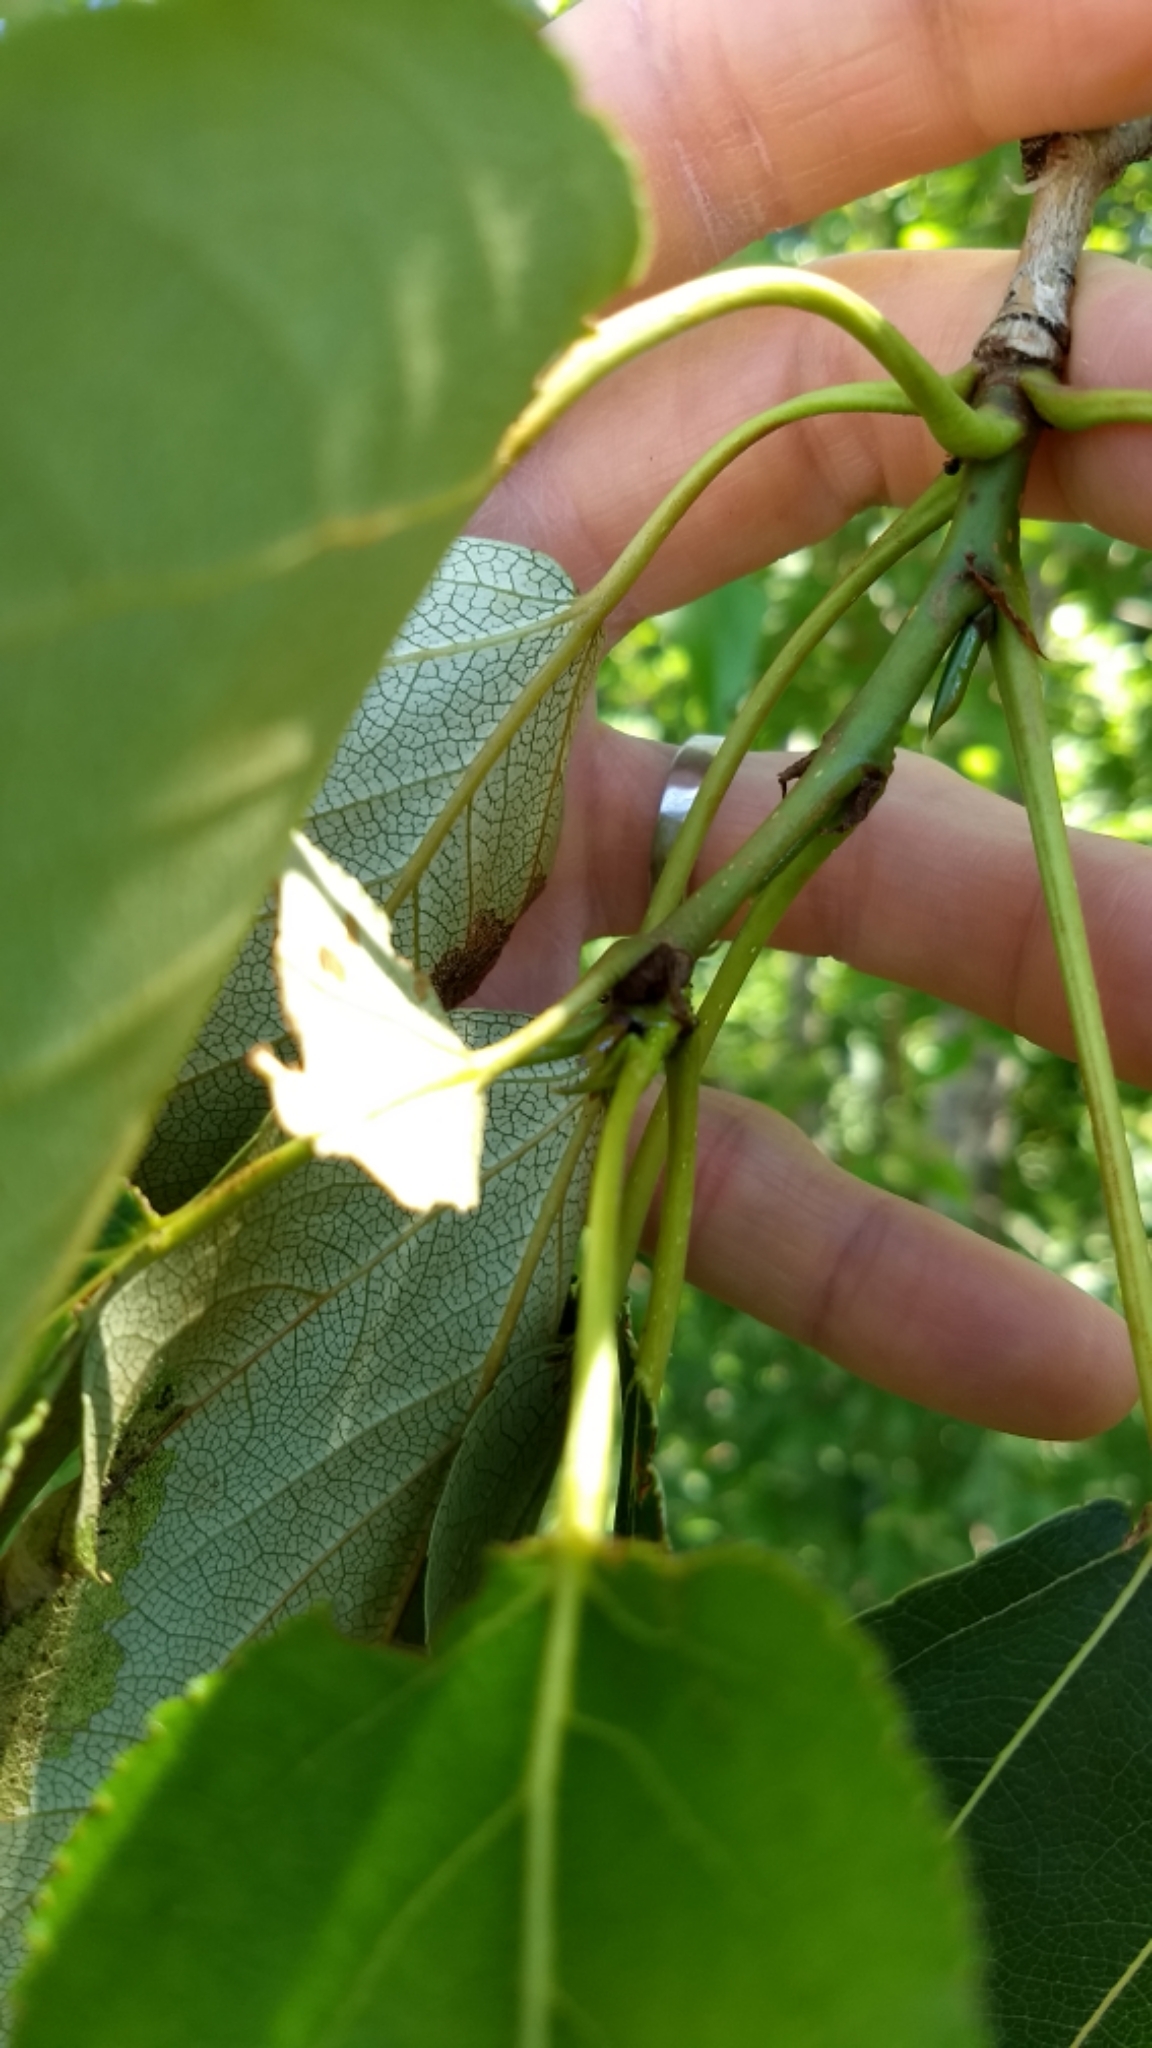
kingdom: Plantae
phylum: Tracheophyta
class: Magnoliopsida
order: Malpighiales
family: Salicaceae
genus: Populus
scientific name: Populus balsamifera
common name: Balsam poplar
